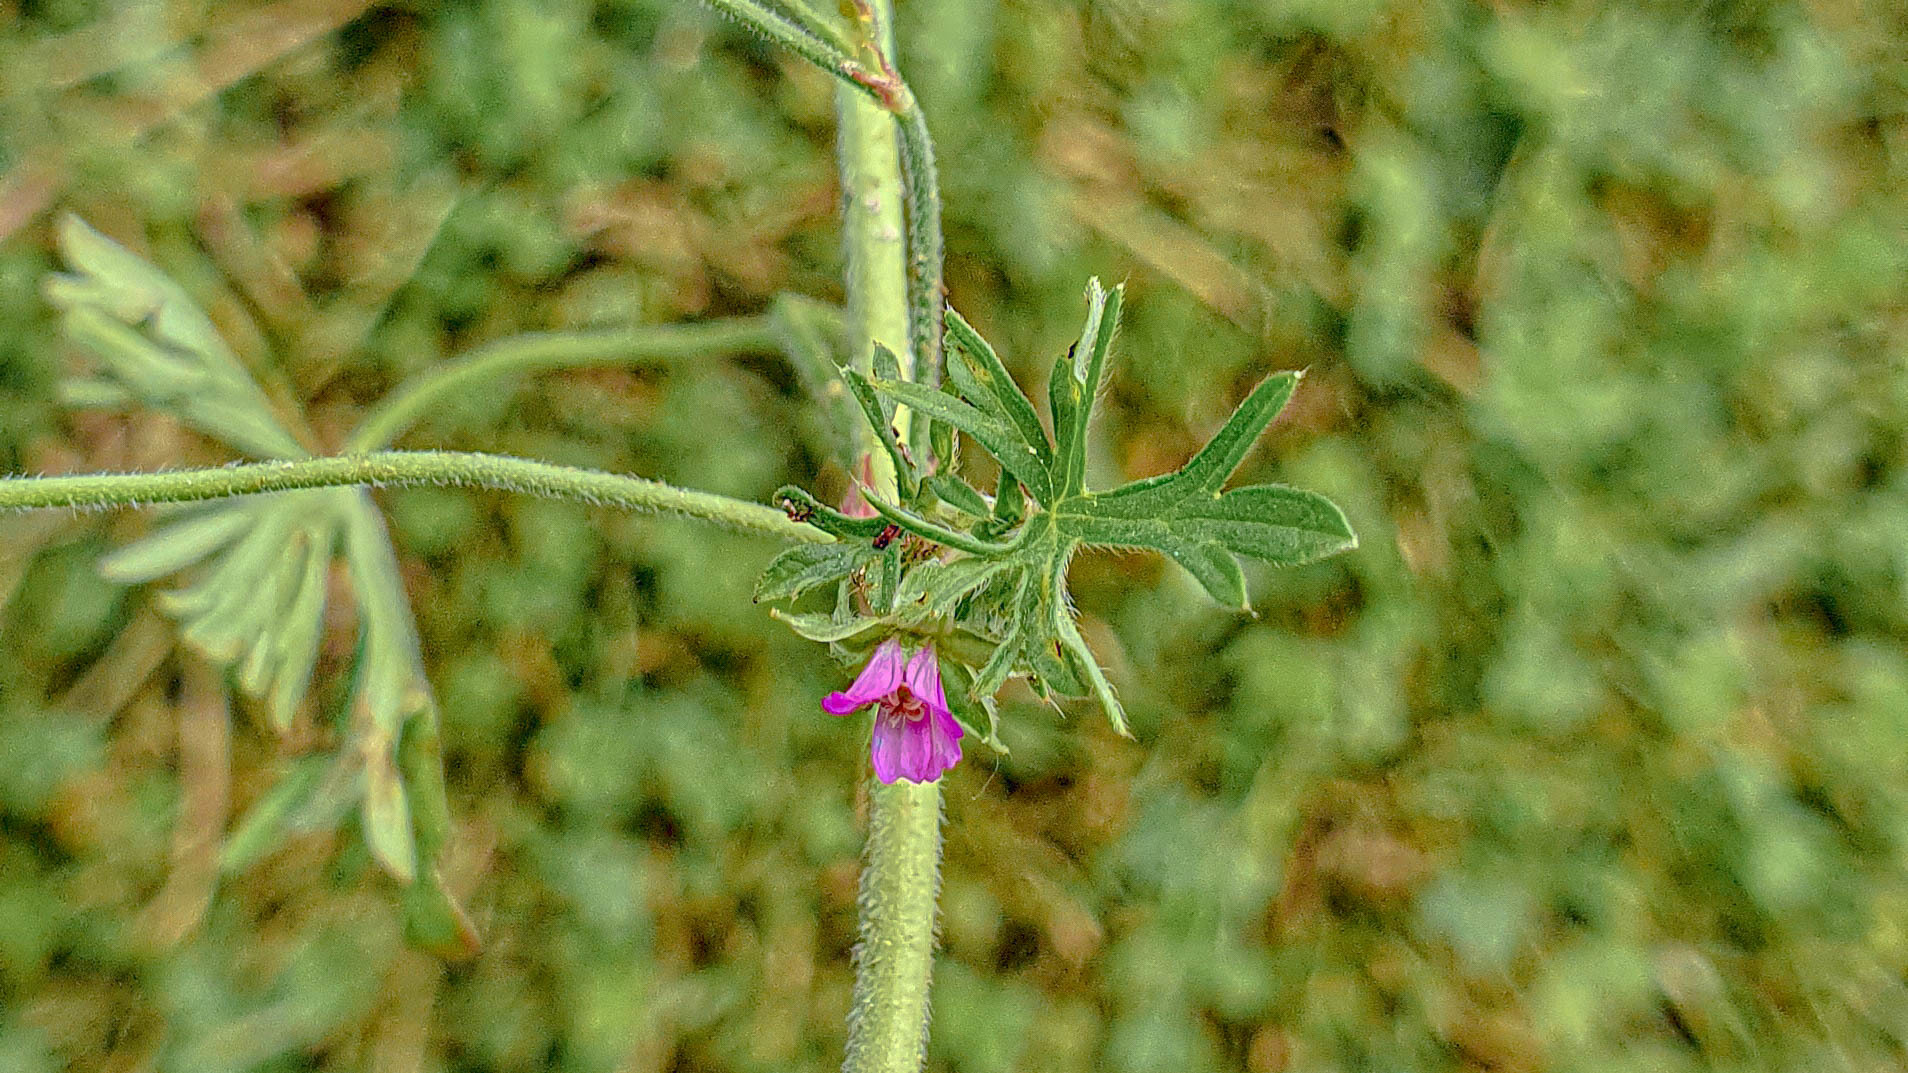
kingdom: Plantae
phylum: Tracheophyta
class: Magnoliopsida
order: Geraniales
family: Geraniaceae
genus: Geranium
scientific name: Geranium dissectum
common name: Cut-leaved crane's-bill
